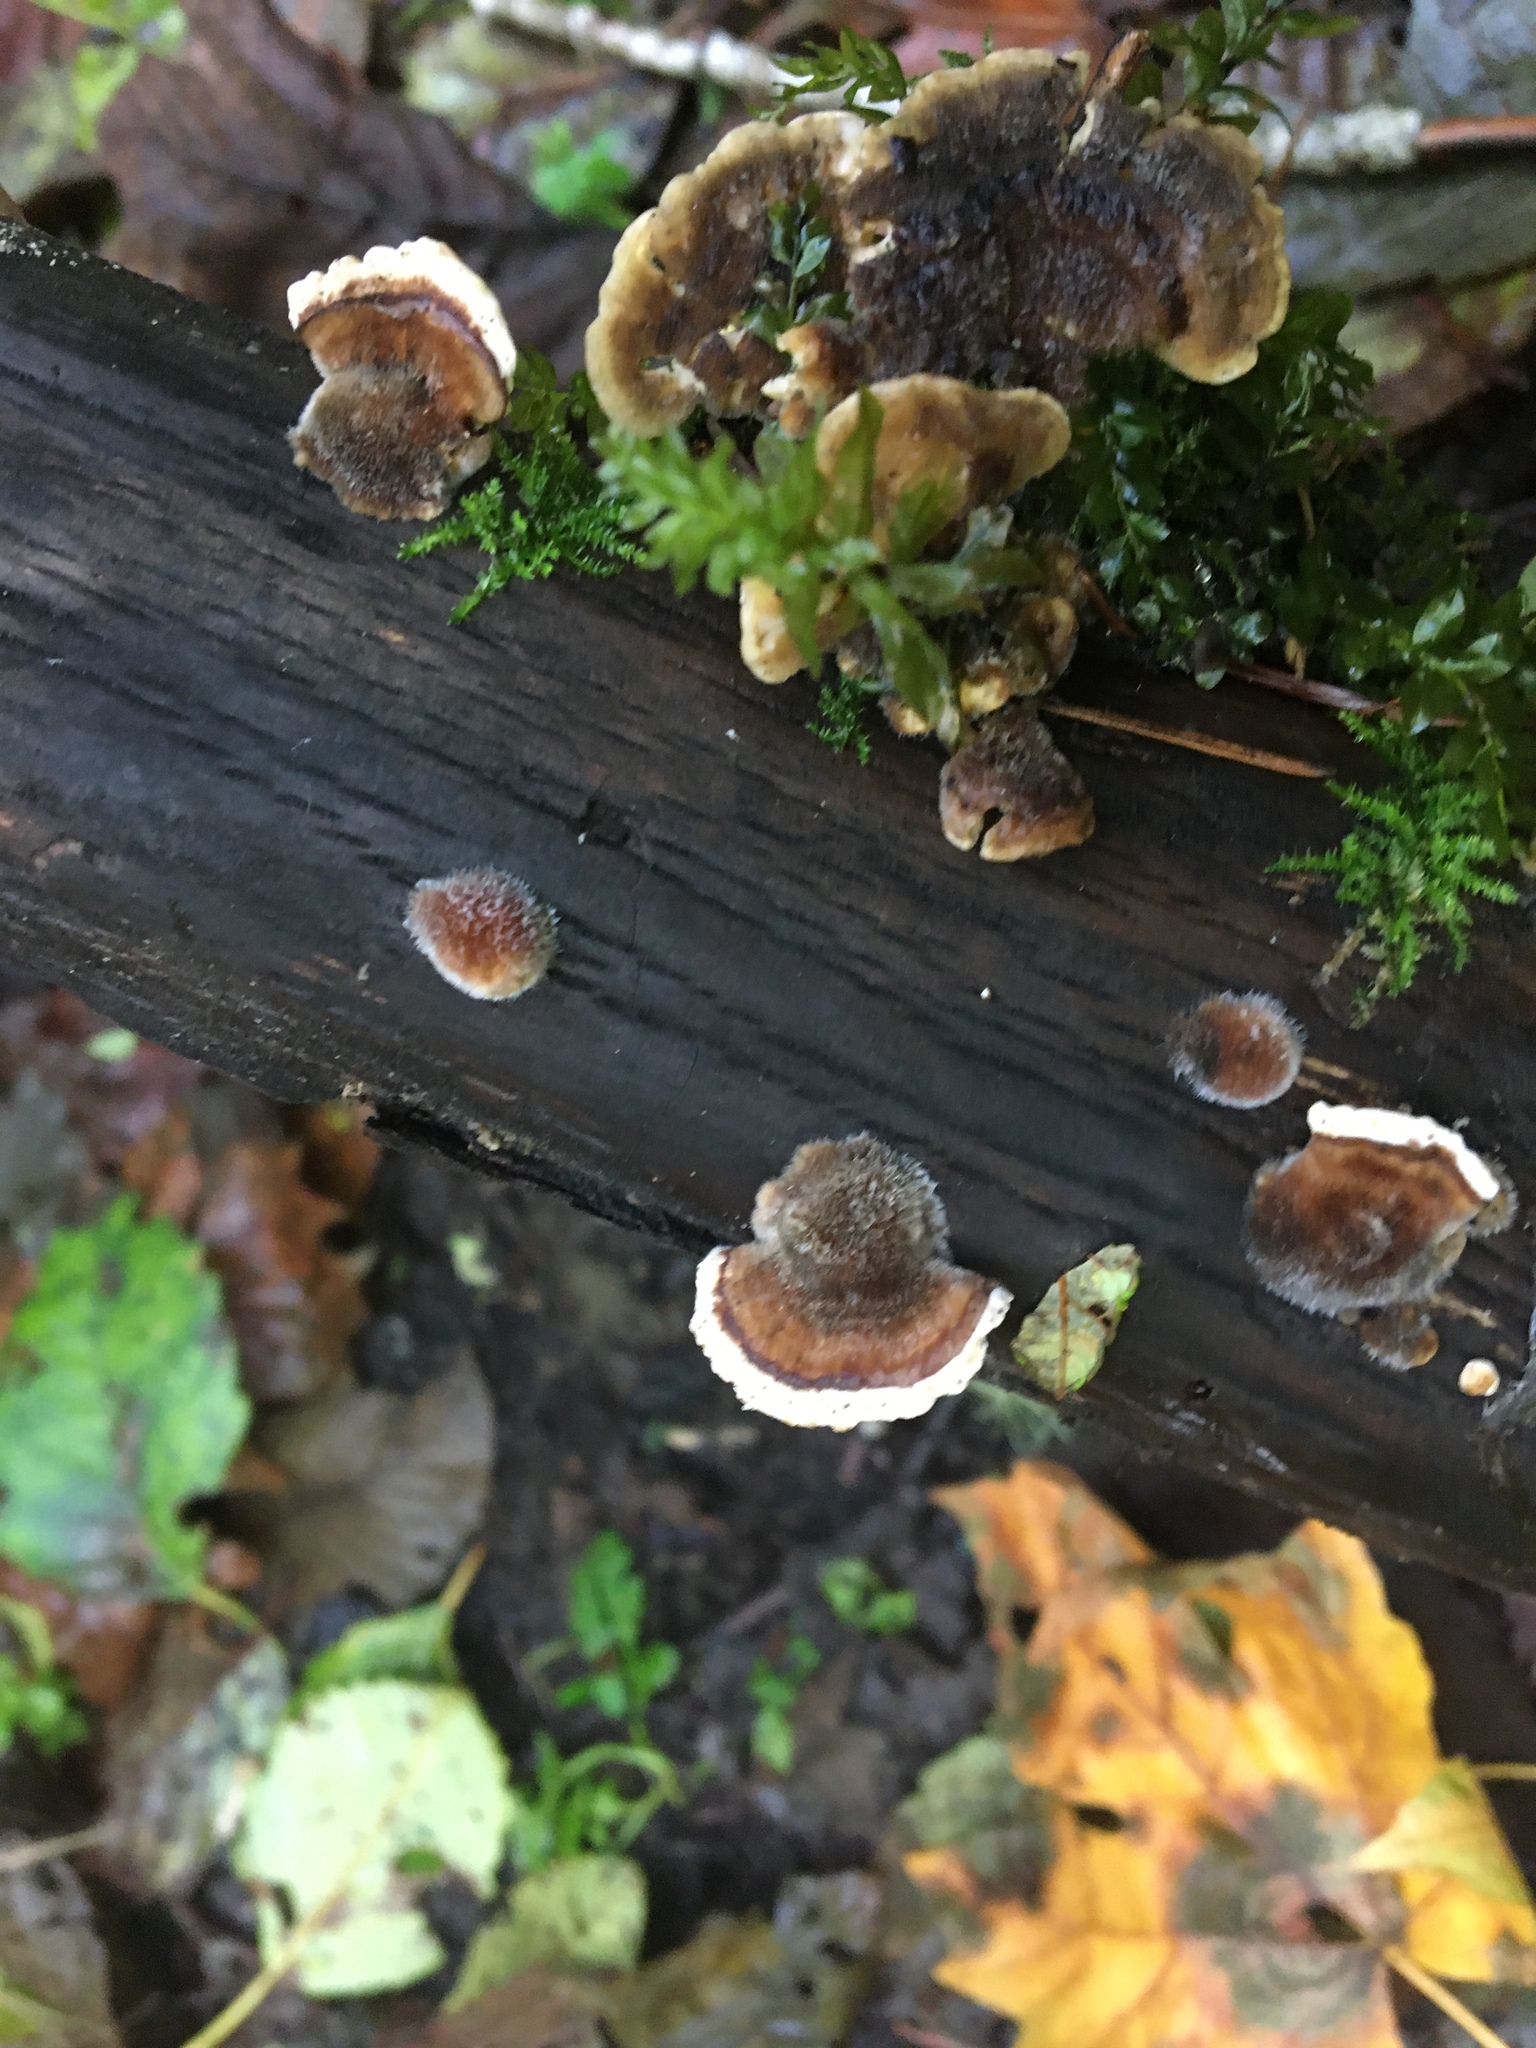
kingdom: Fungi
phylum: Basidiomycota
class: Agaricomycetes
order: Polyporales
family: Polyporaceae
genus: Trametes
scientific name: Trametes versicolor
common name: Turkeytail
